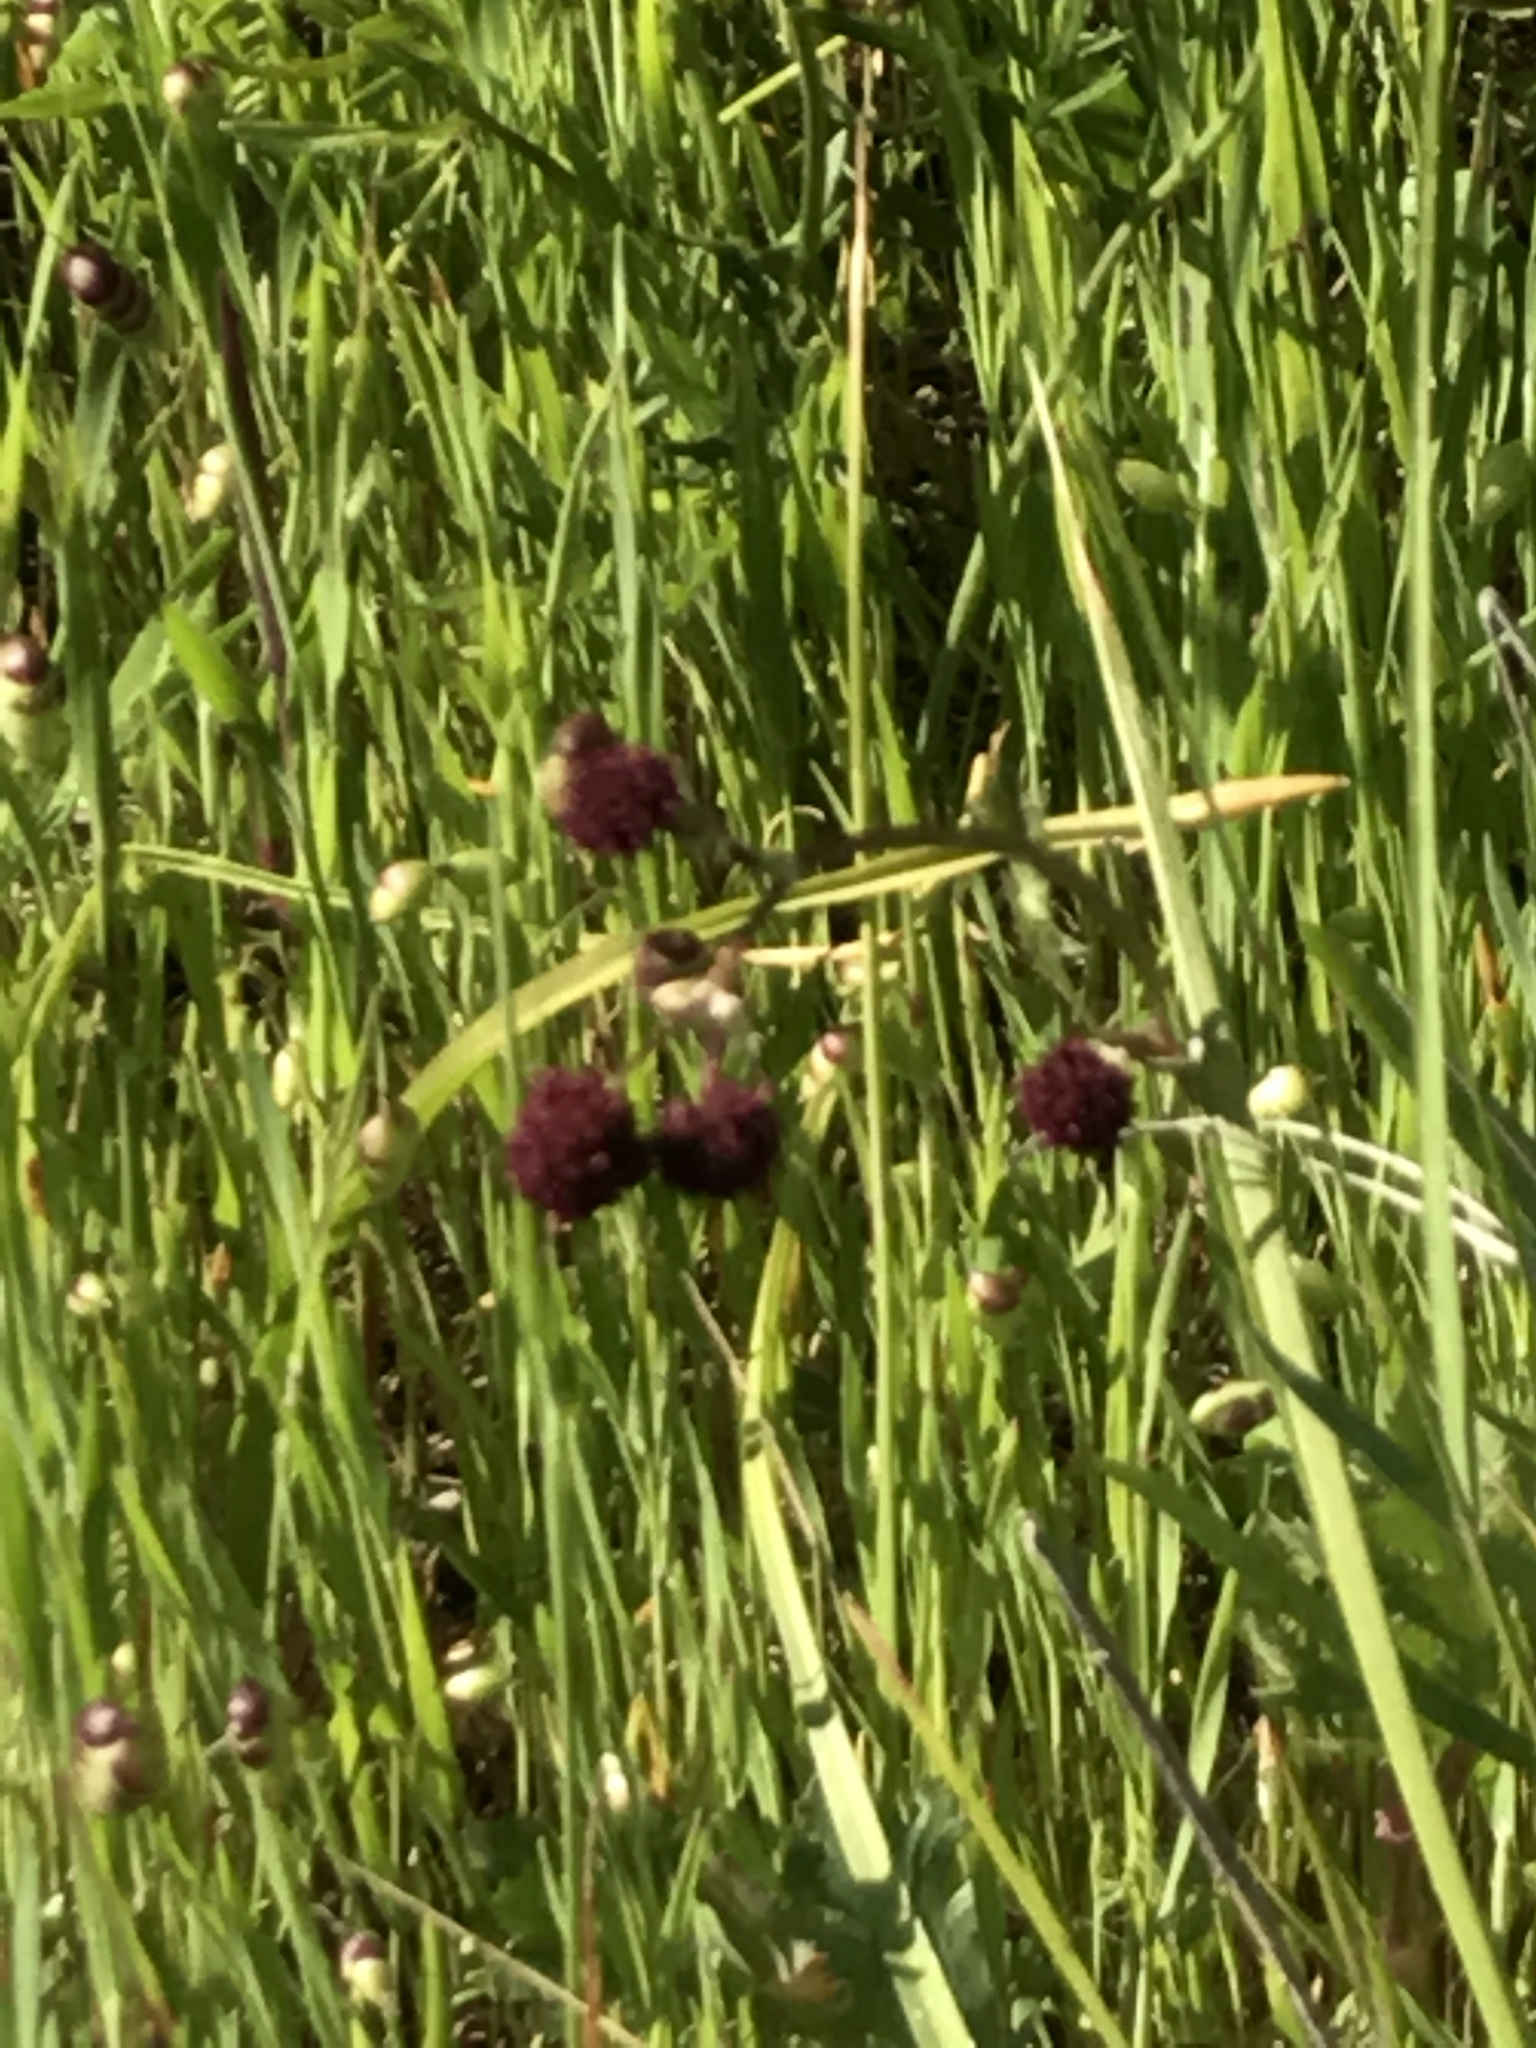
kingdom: Plantae
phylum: Tracheophyta
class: Magnoliopsida
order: Apiales
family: Apiaceae
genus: Sanicula
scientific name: Sanicula bipinnatifida
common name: Shoe-buttons
